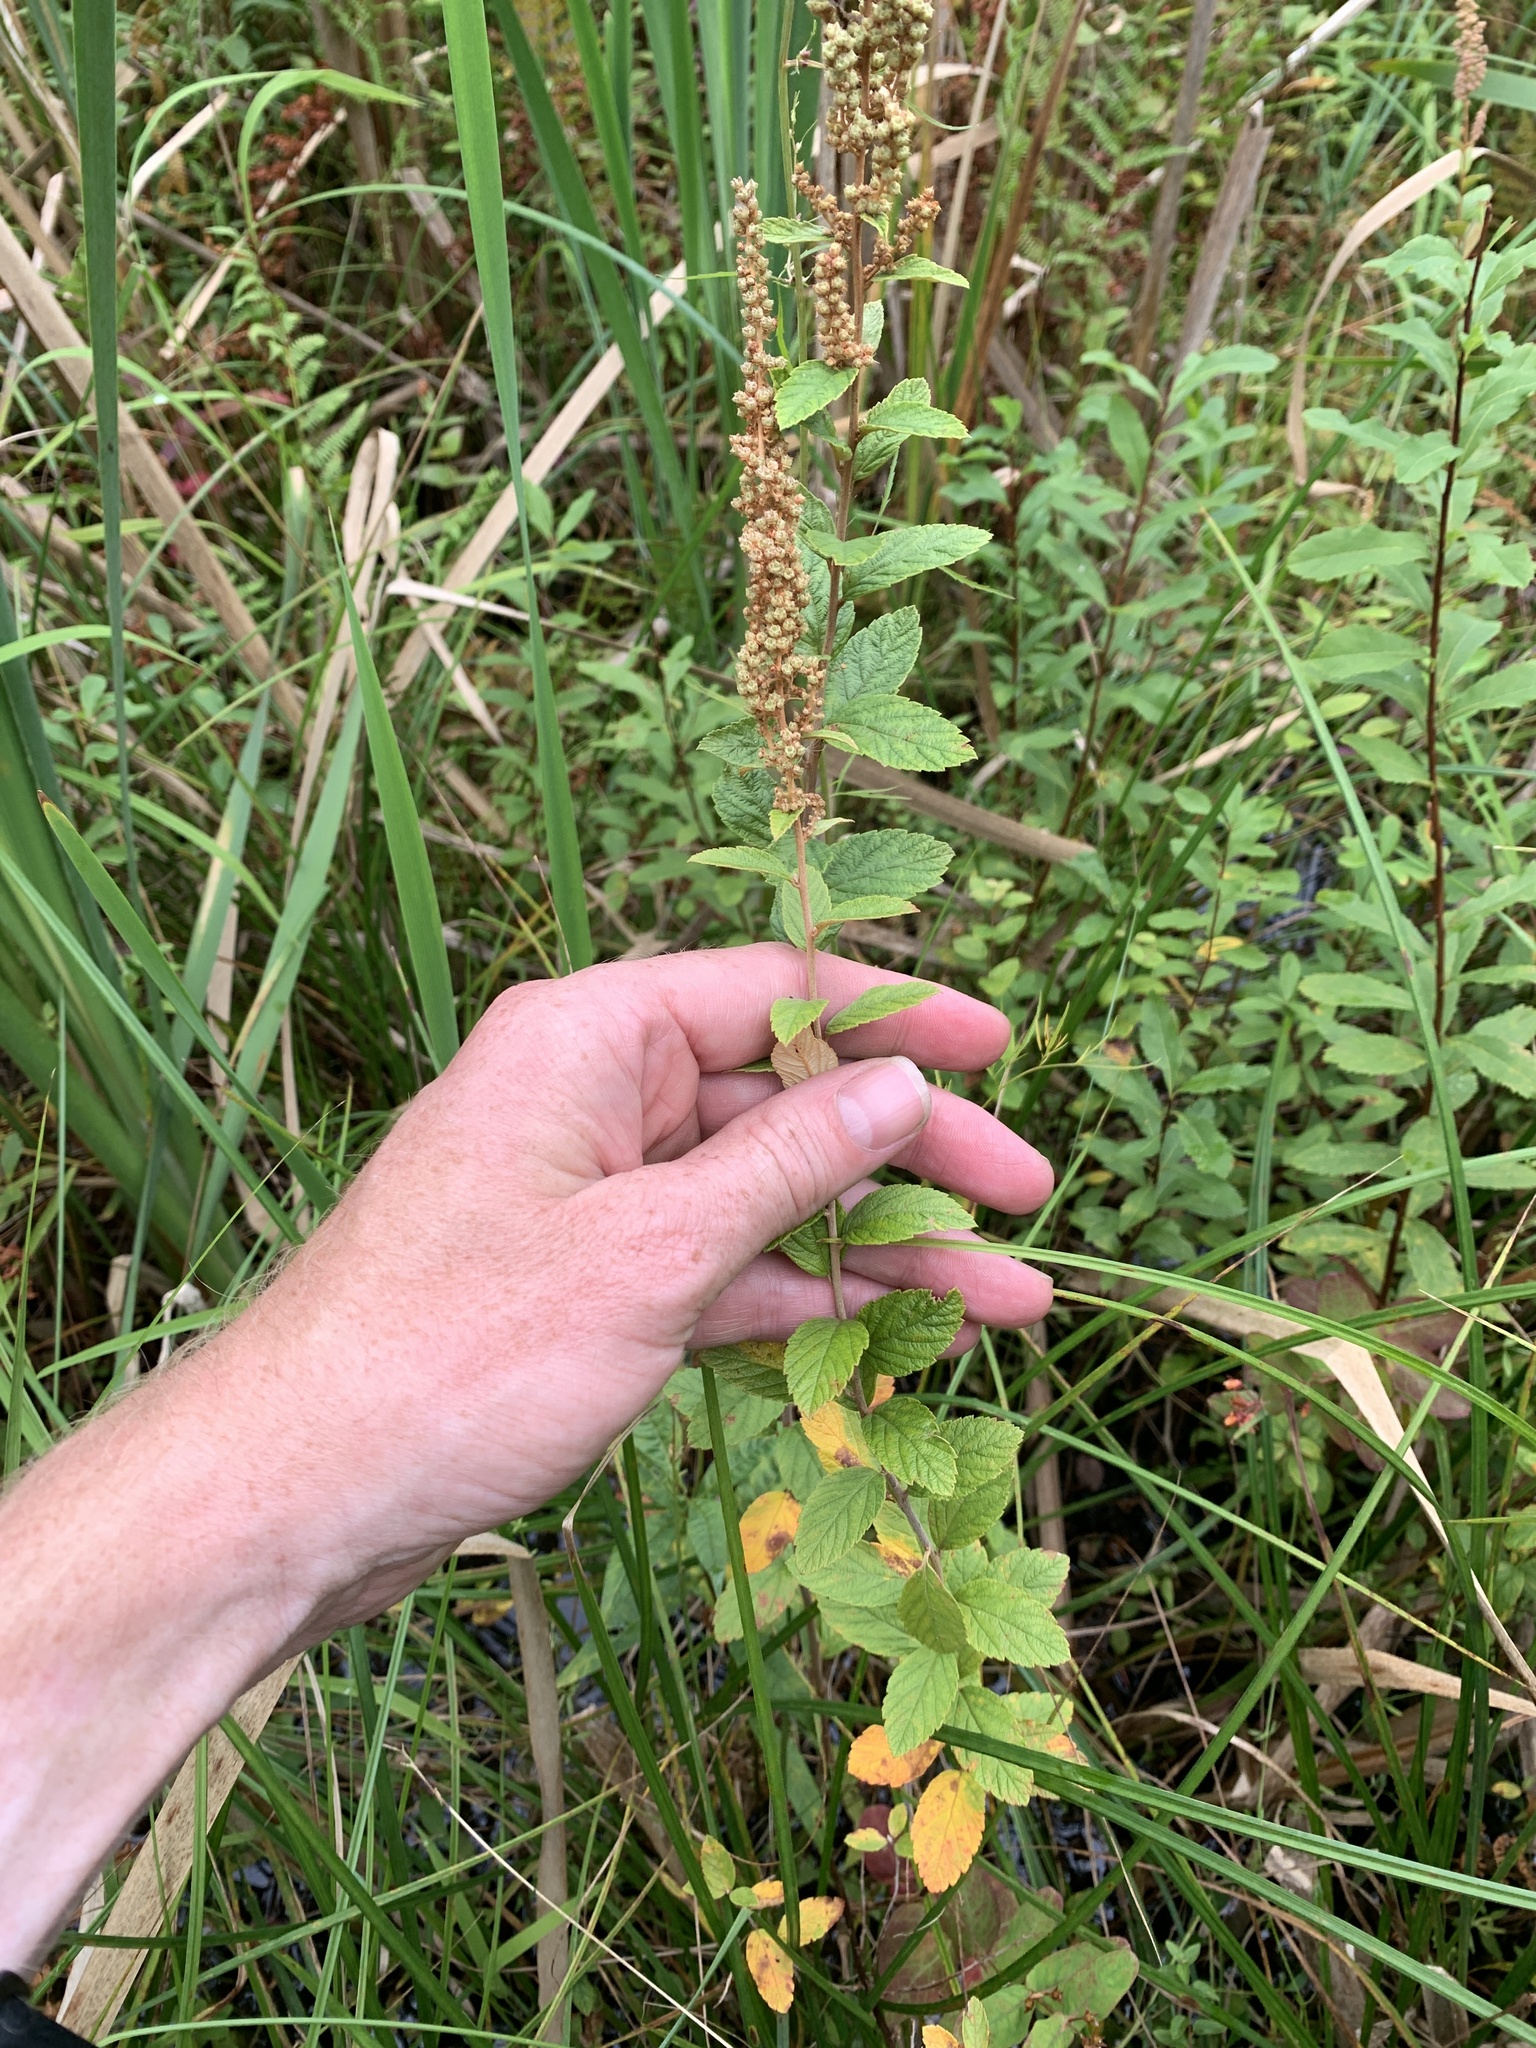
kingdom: Plantae
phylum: Tracheophyta
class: Magnoliopsida
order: Rosales
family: Rosaceae
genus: Spiraea
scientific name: Spiraea tomentosa
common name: Hardhack
